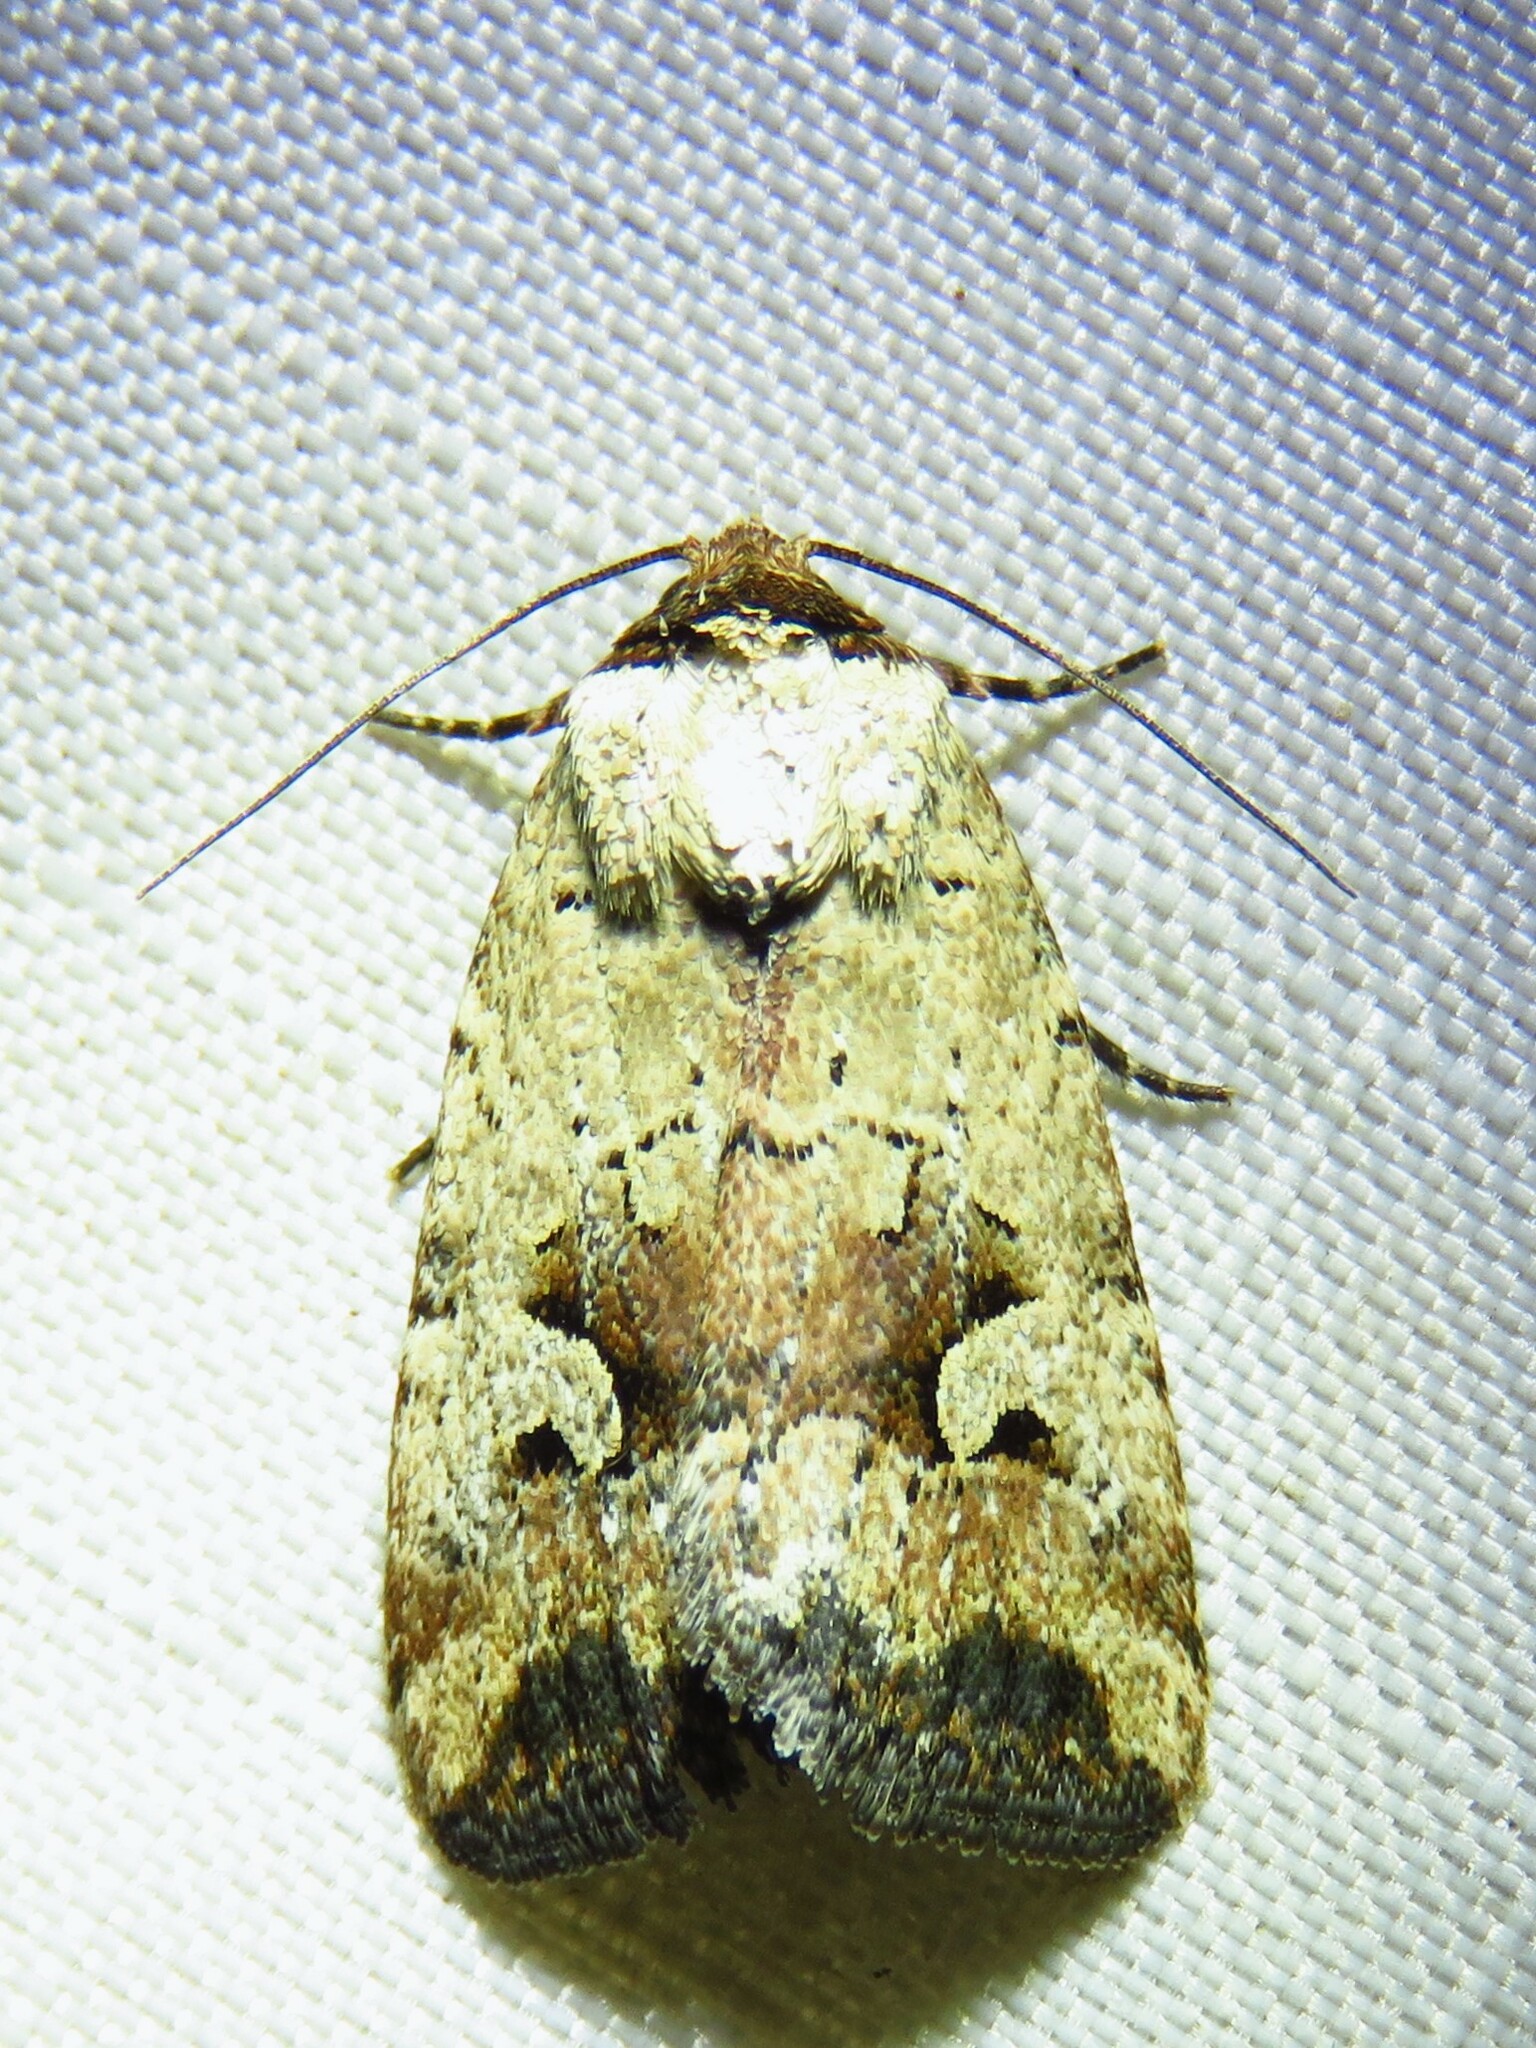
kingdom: Animalia
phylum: Arthropoda
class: Insecta
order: Lepidoptera
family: Noctuidae
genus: Elaphria
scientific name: Elaphria festivoides
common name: Festive midget
